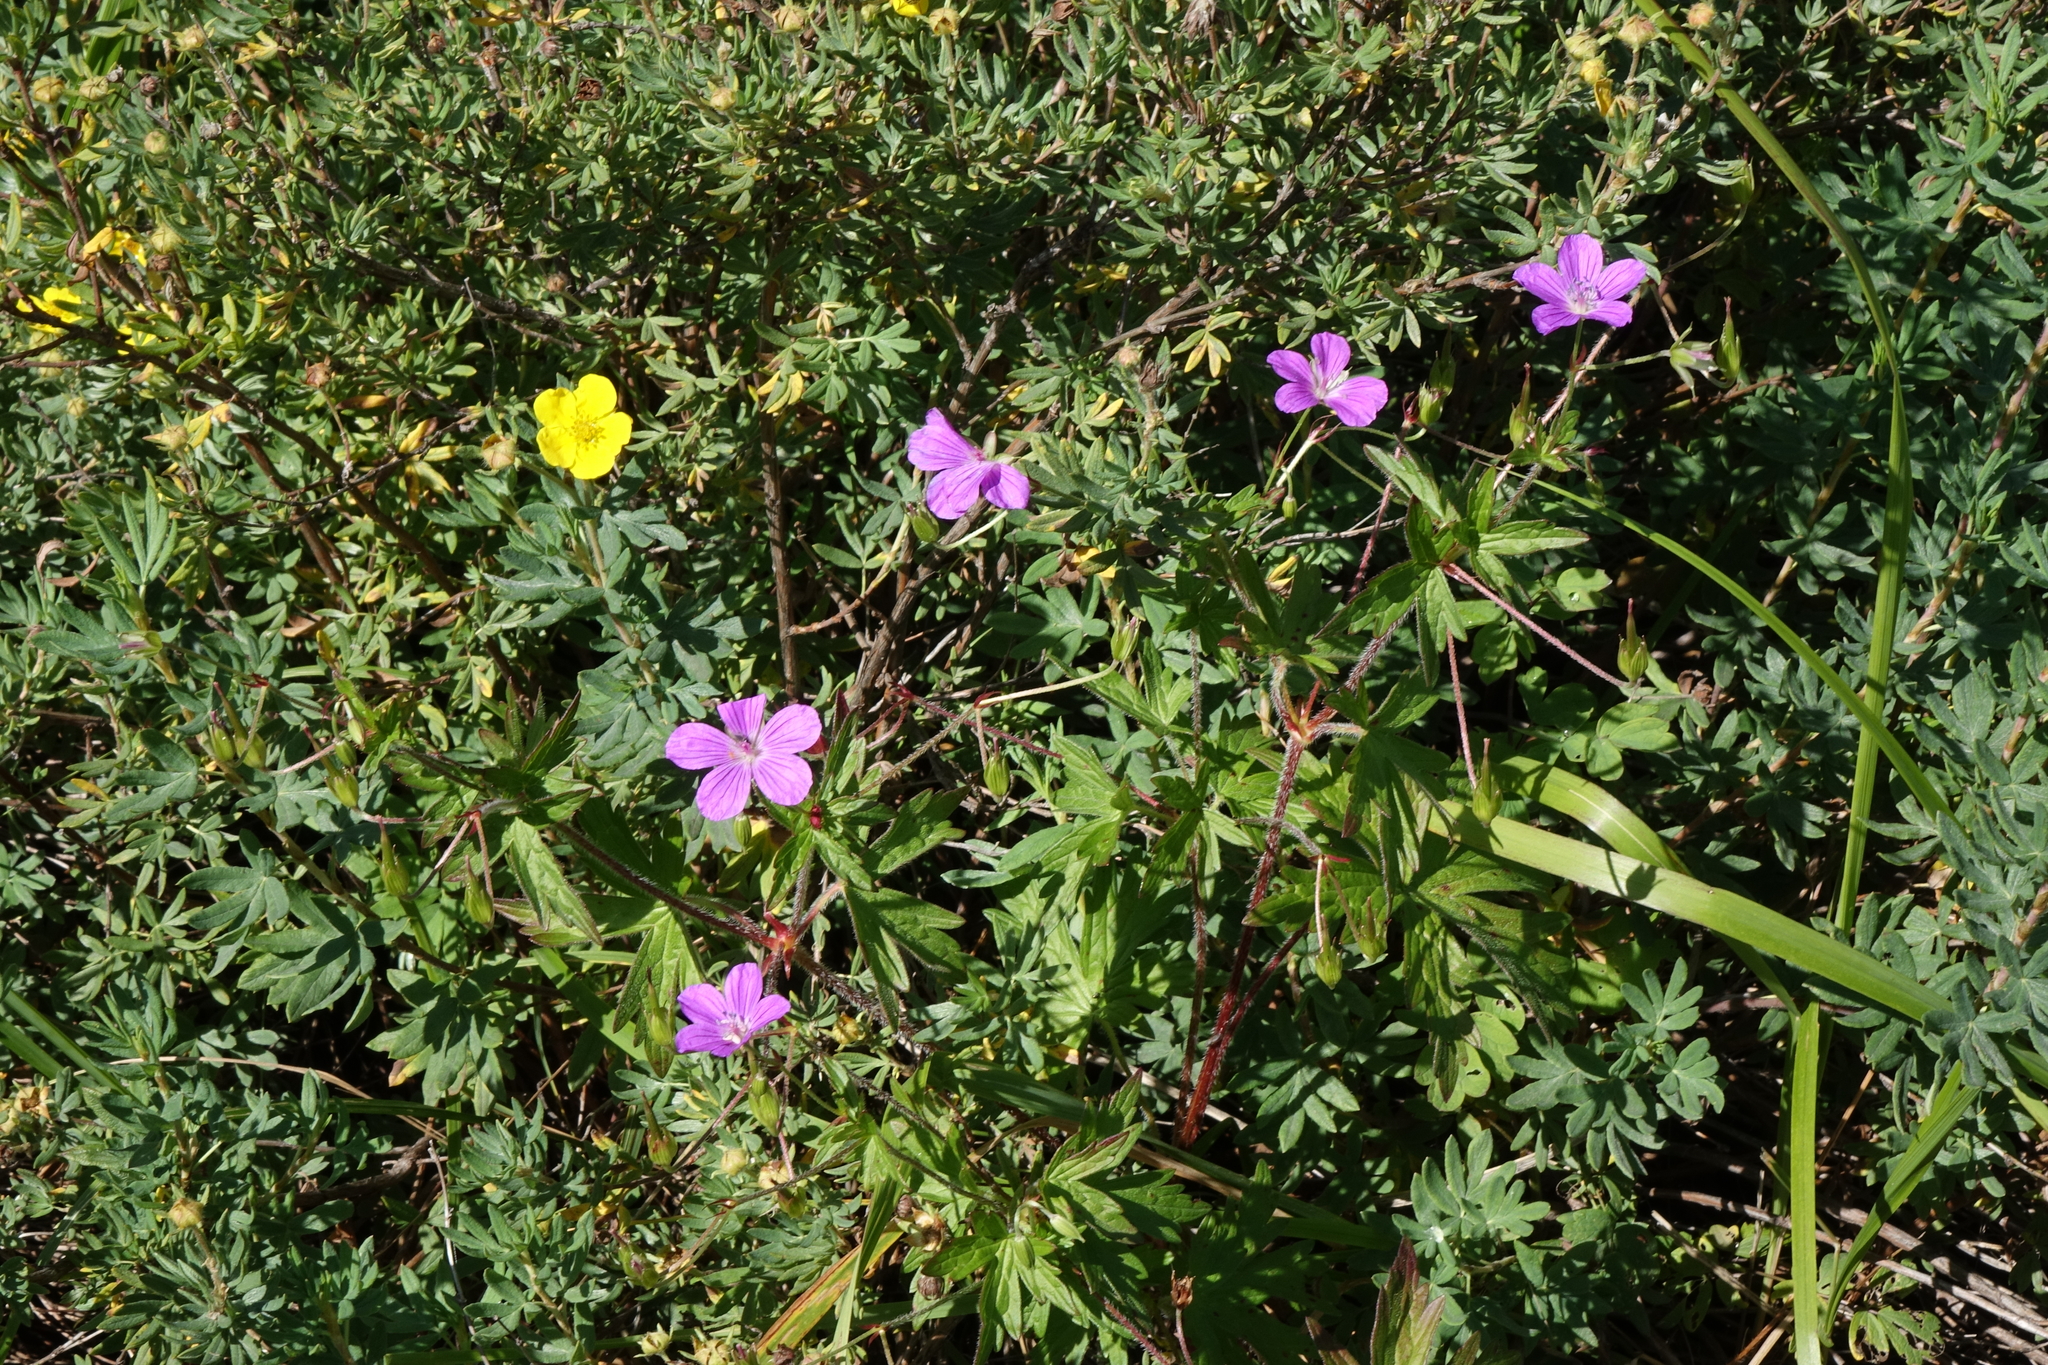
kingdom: Plantae
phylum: Tracheophyta
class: Magnoliopsida
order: Geraniales
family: Geraniaceae
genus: Geranium
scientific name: Geranium palustre
